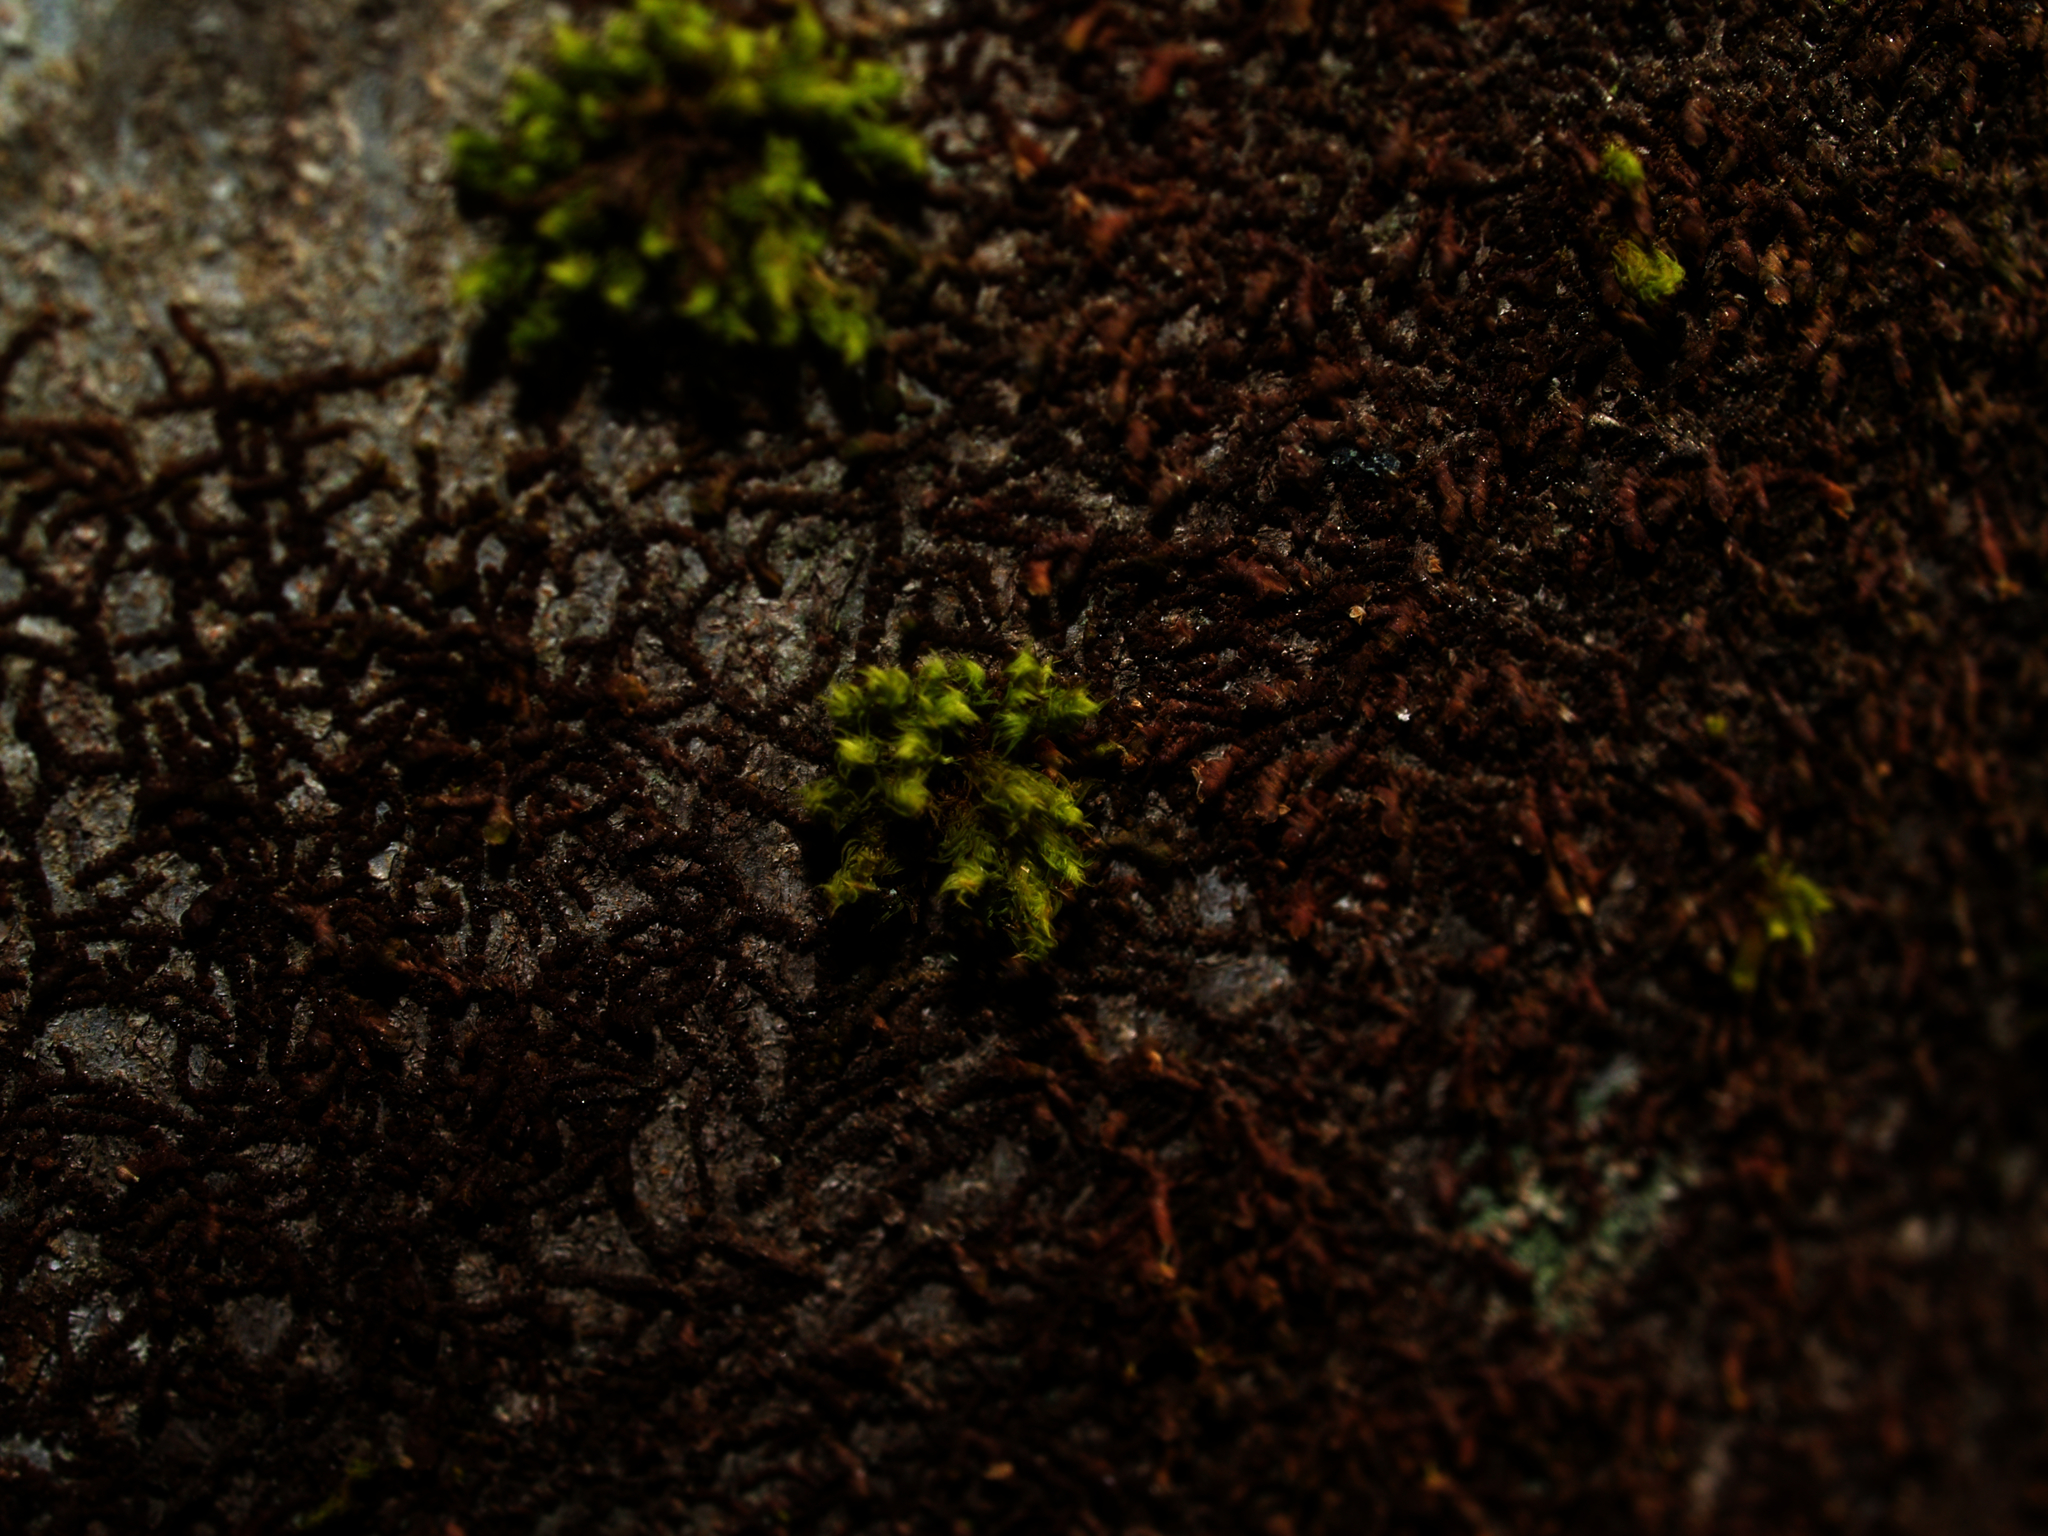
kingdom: Plantae
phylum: Bryophyta
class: Bryopsida
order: Orthotrichales
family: Orthotrichaceae
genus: Ulota
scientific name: Ulota crispa
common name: Crisped pincushion moss
